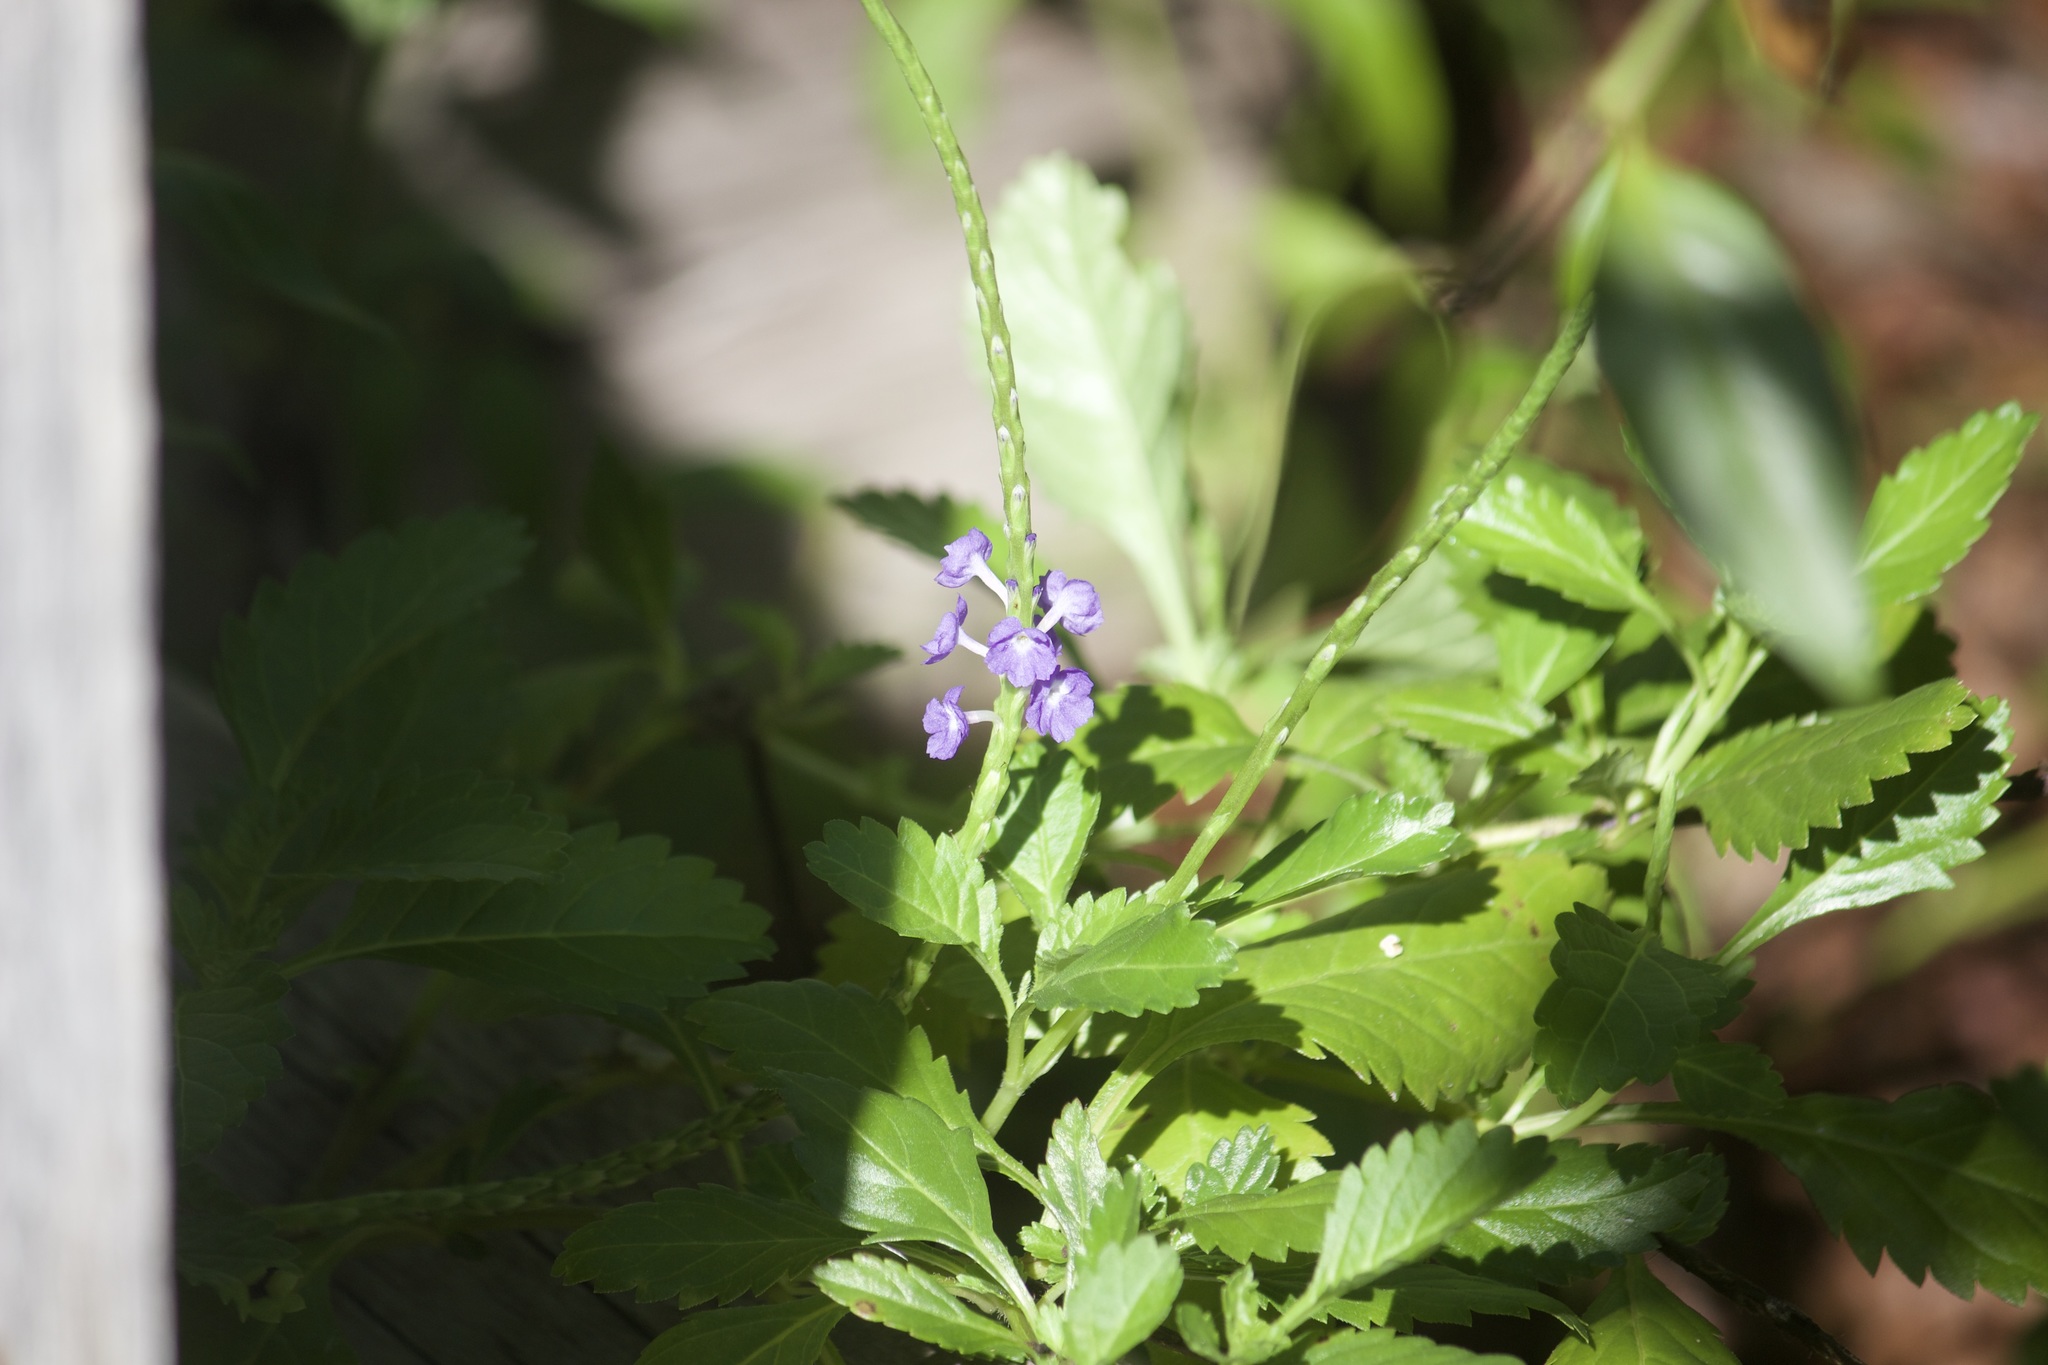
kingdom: Plantae
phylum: Tracheophyta
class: Magnoliopsida
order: Lamiales
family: Verbenaceae
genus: Stachytarpheta
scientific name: Stachytarpheta jamaicensis
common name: Light-blue snakeweed
